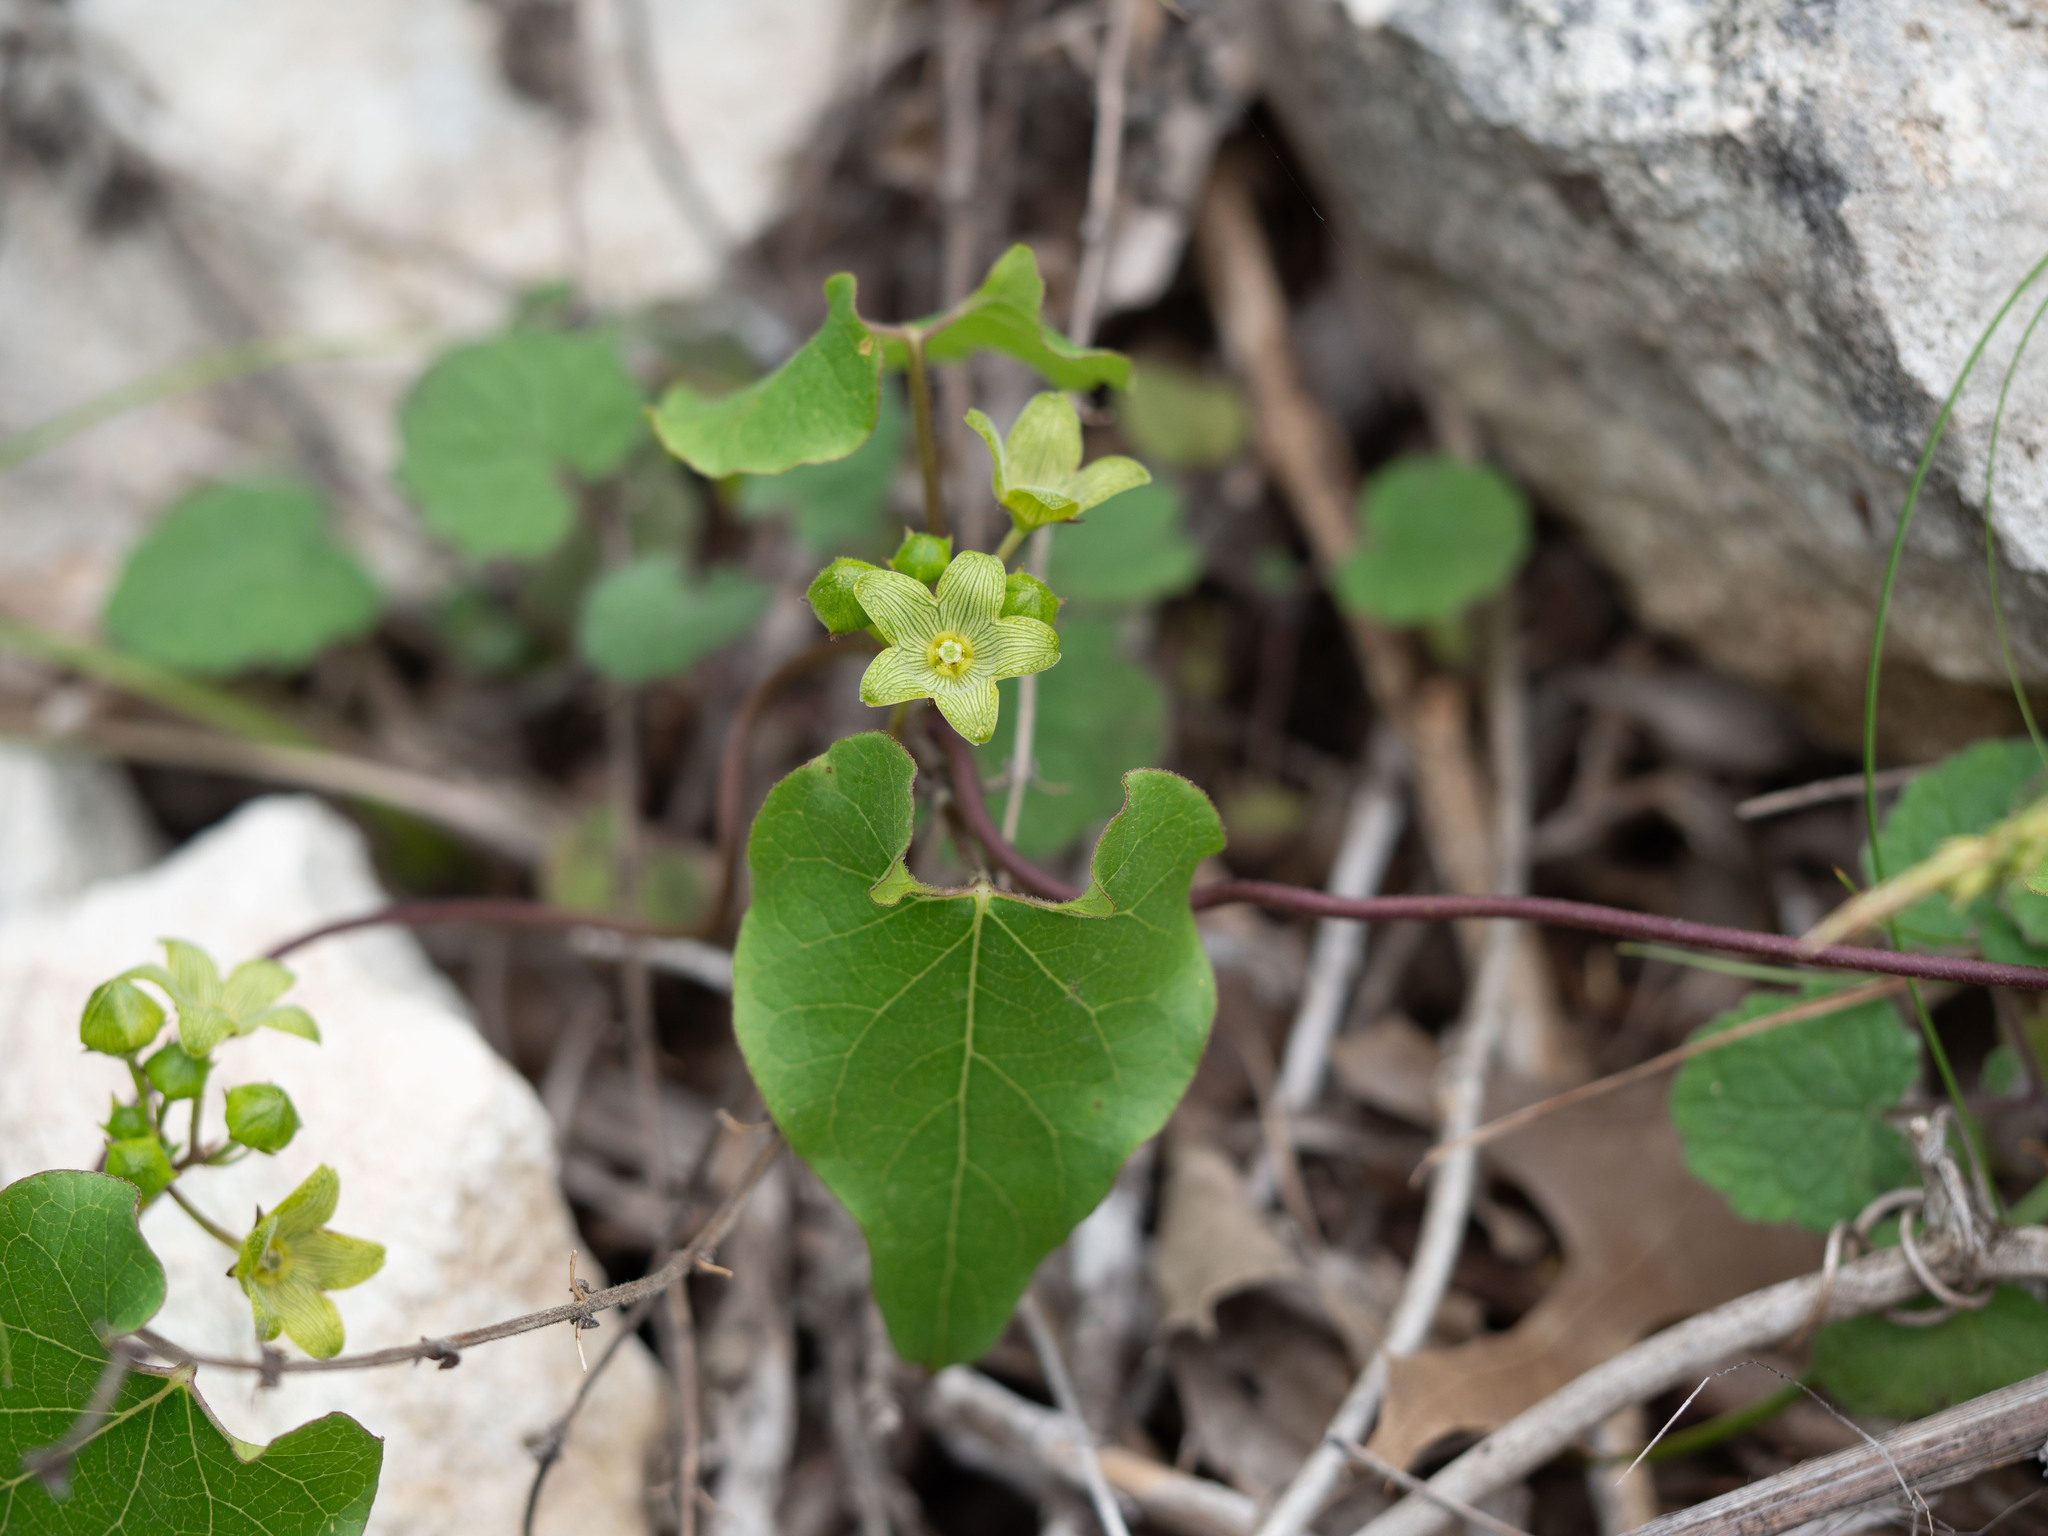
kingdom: Plantae
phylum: Tracheophyta
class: Magnoliopsida
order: Gentianales
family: Apocynaceae
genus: Matelea
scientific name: Matelea edwardsensis
